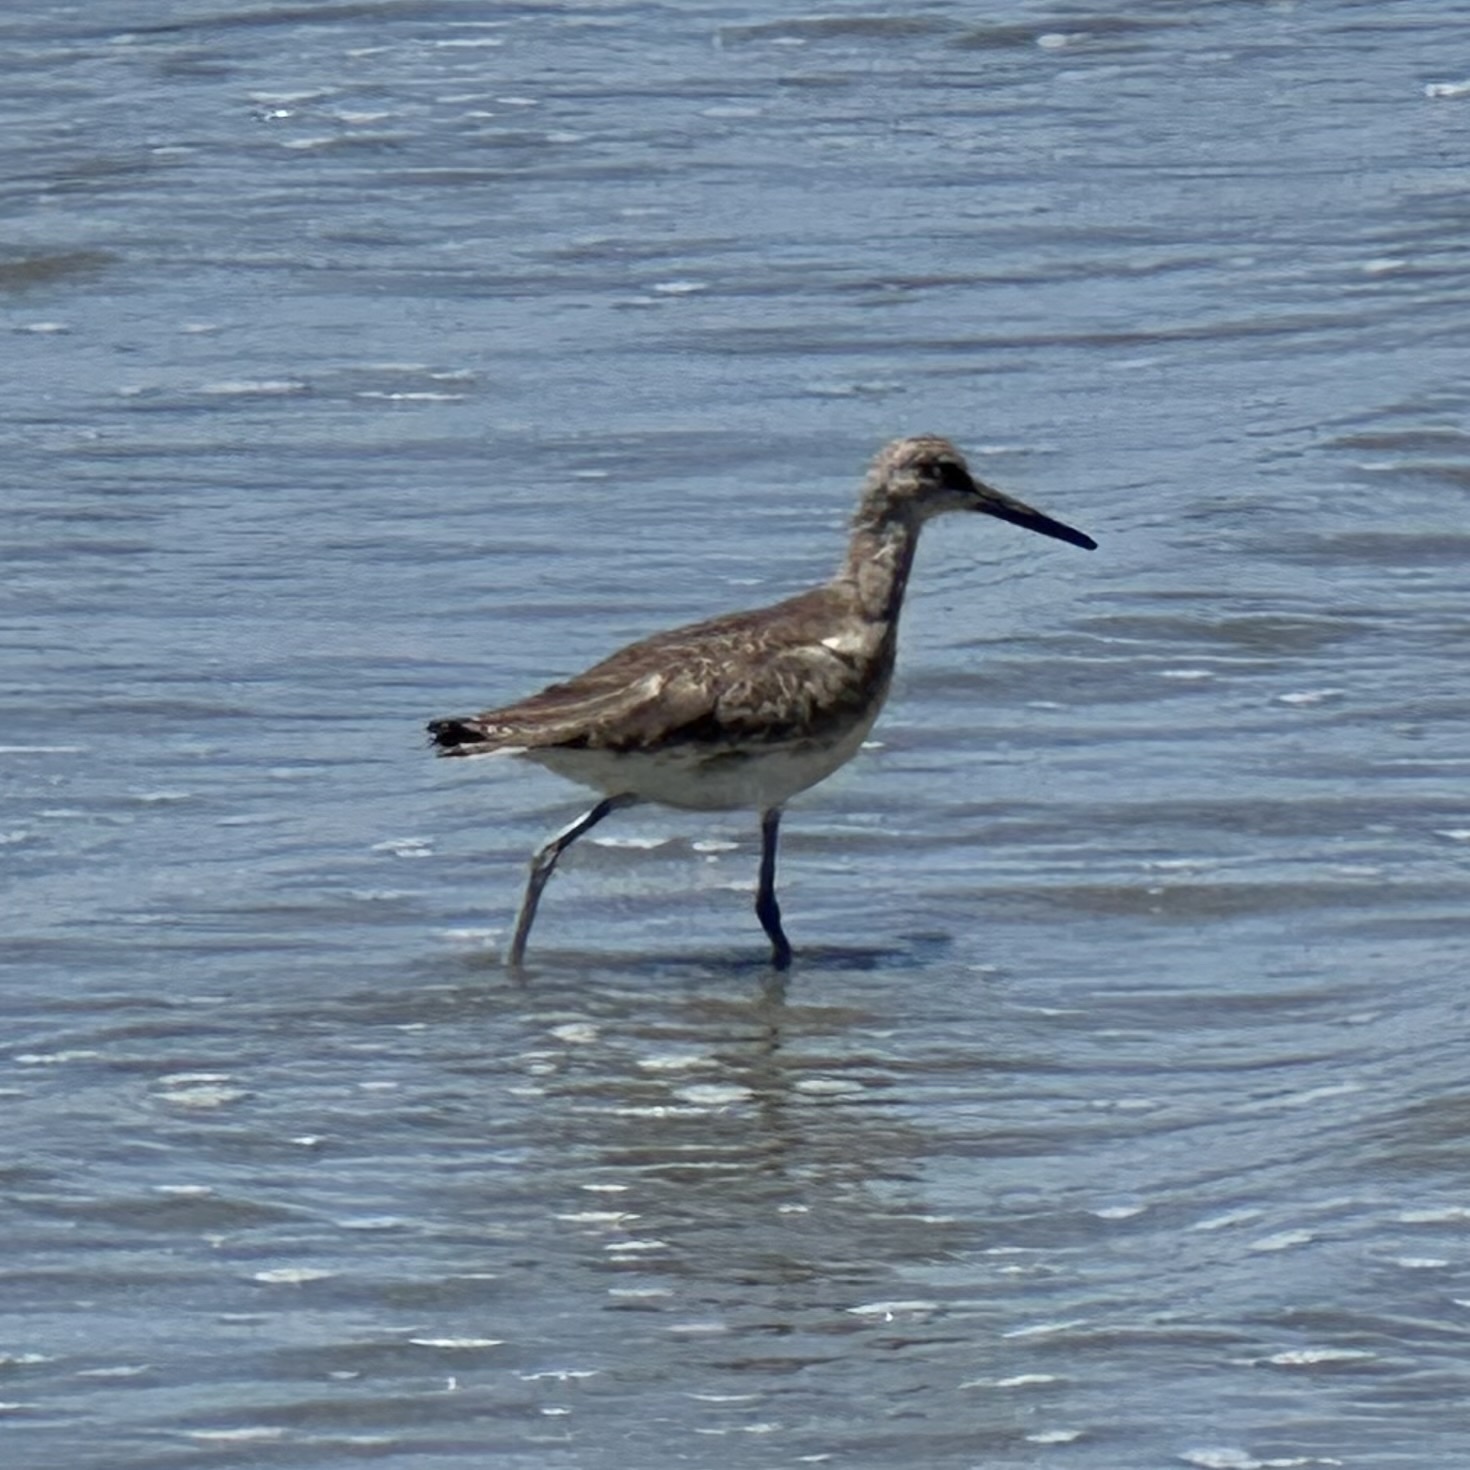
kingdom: Animalia
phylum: Chordata
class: Aves
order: Charadriiformes
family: Scolopacidae
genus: Tringa
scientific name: Tringa semipalmata
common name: Willet
